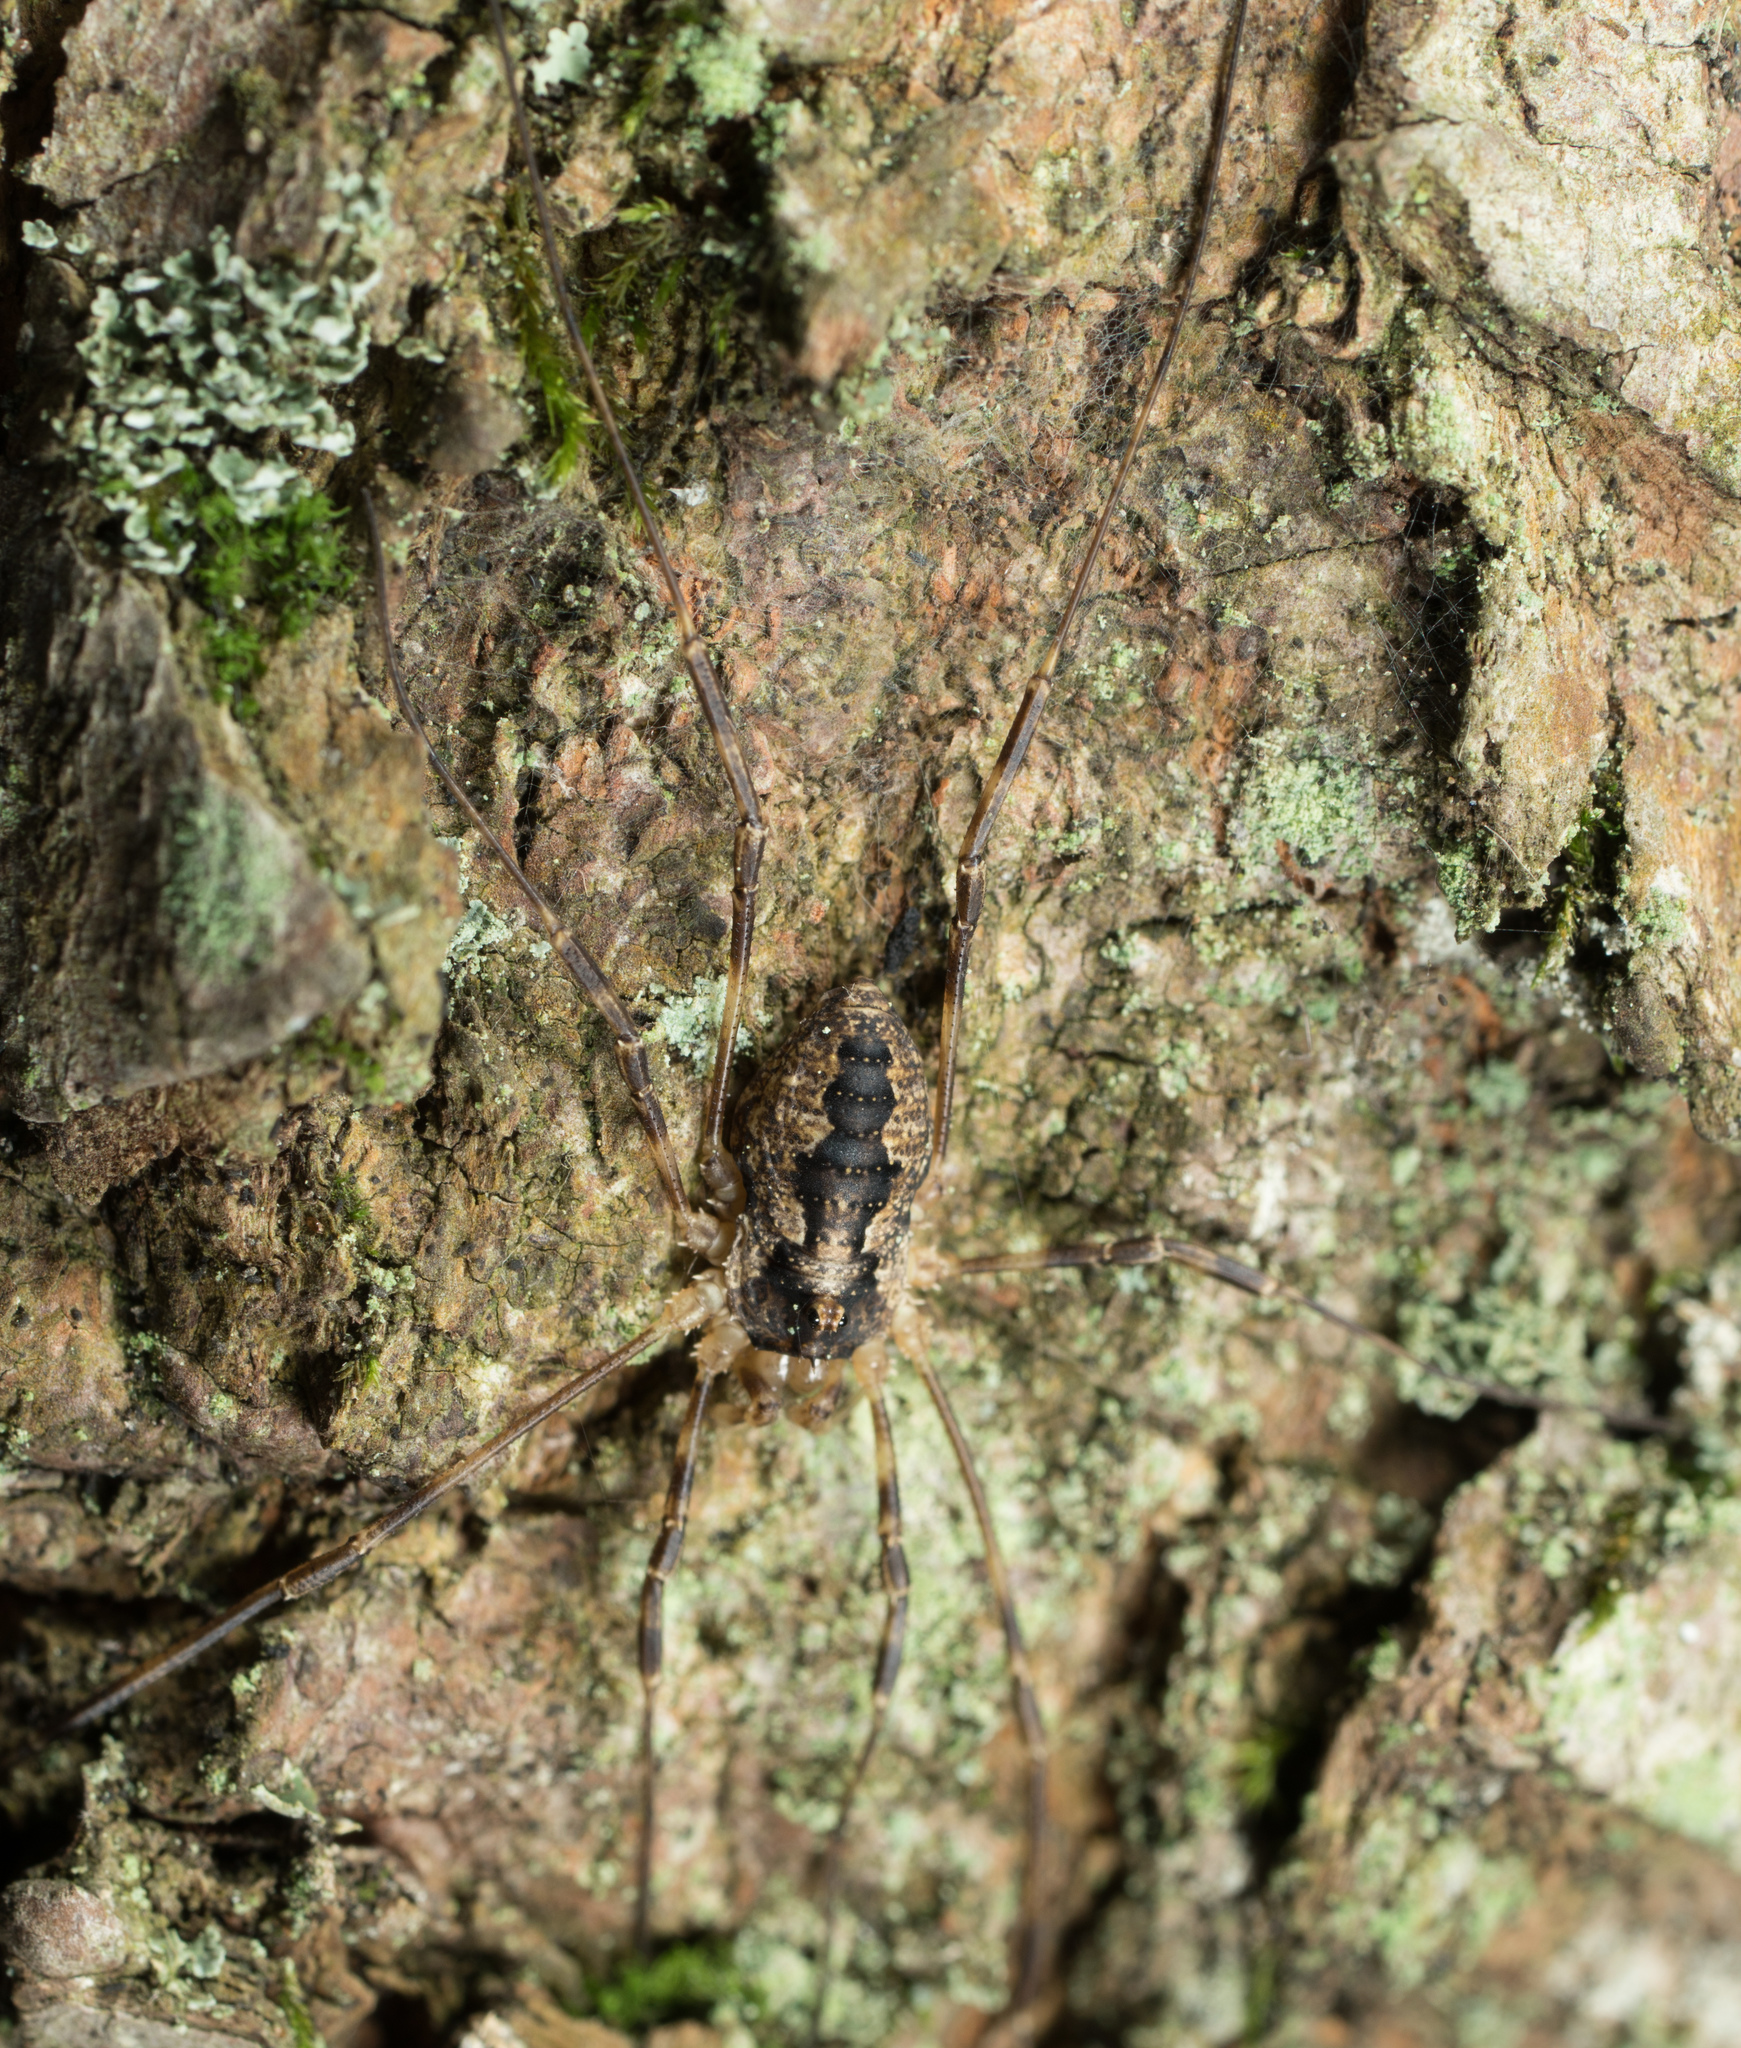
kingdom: Animalia
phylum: Arthropoda
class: Arachnida
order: Opiliones
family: Phalangiidae
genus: Odiellus
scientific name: Odiellus pictus
